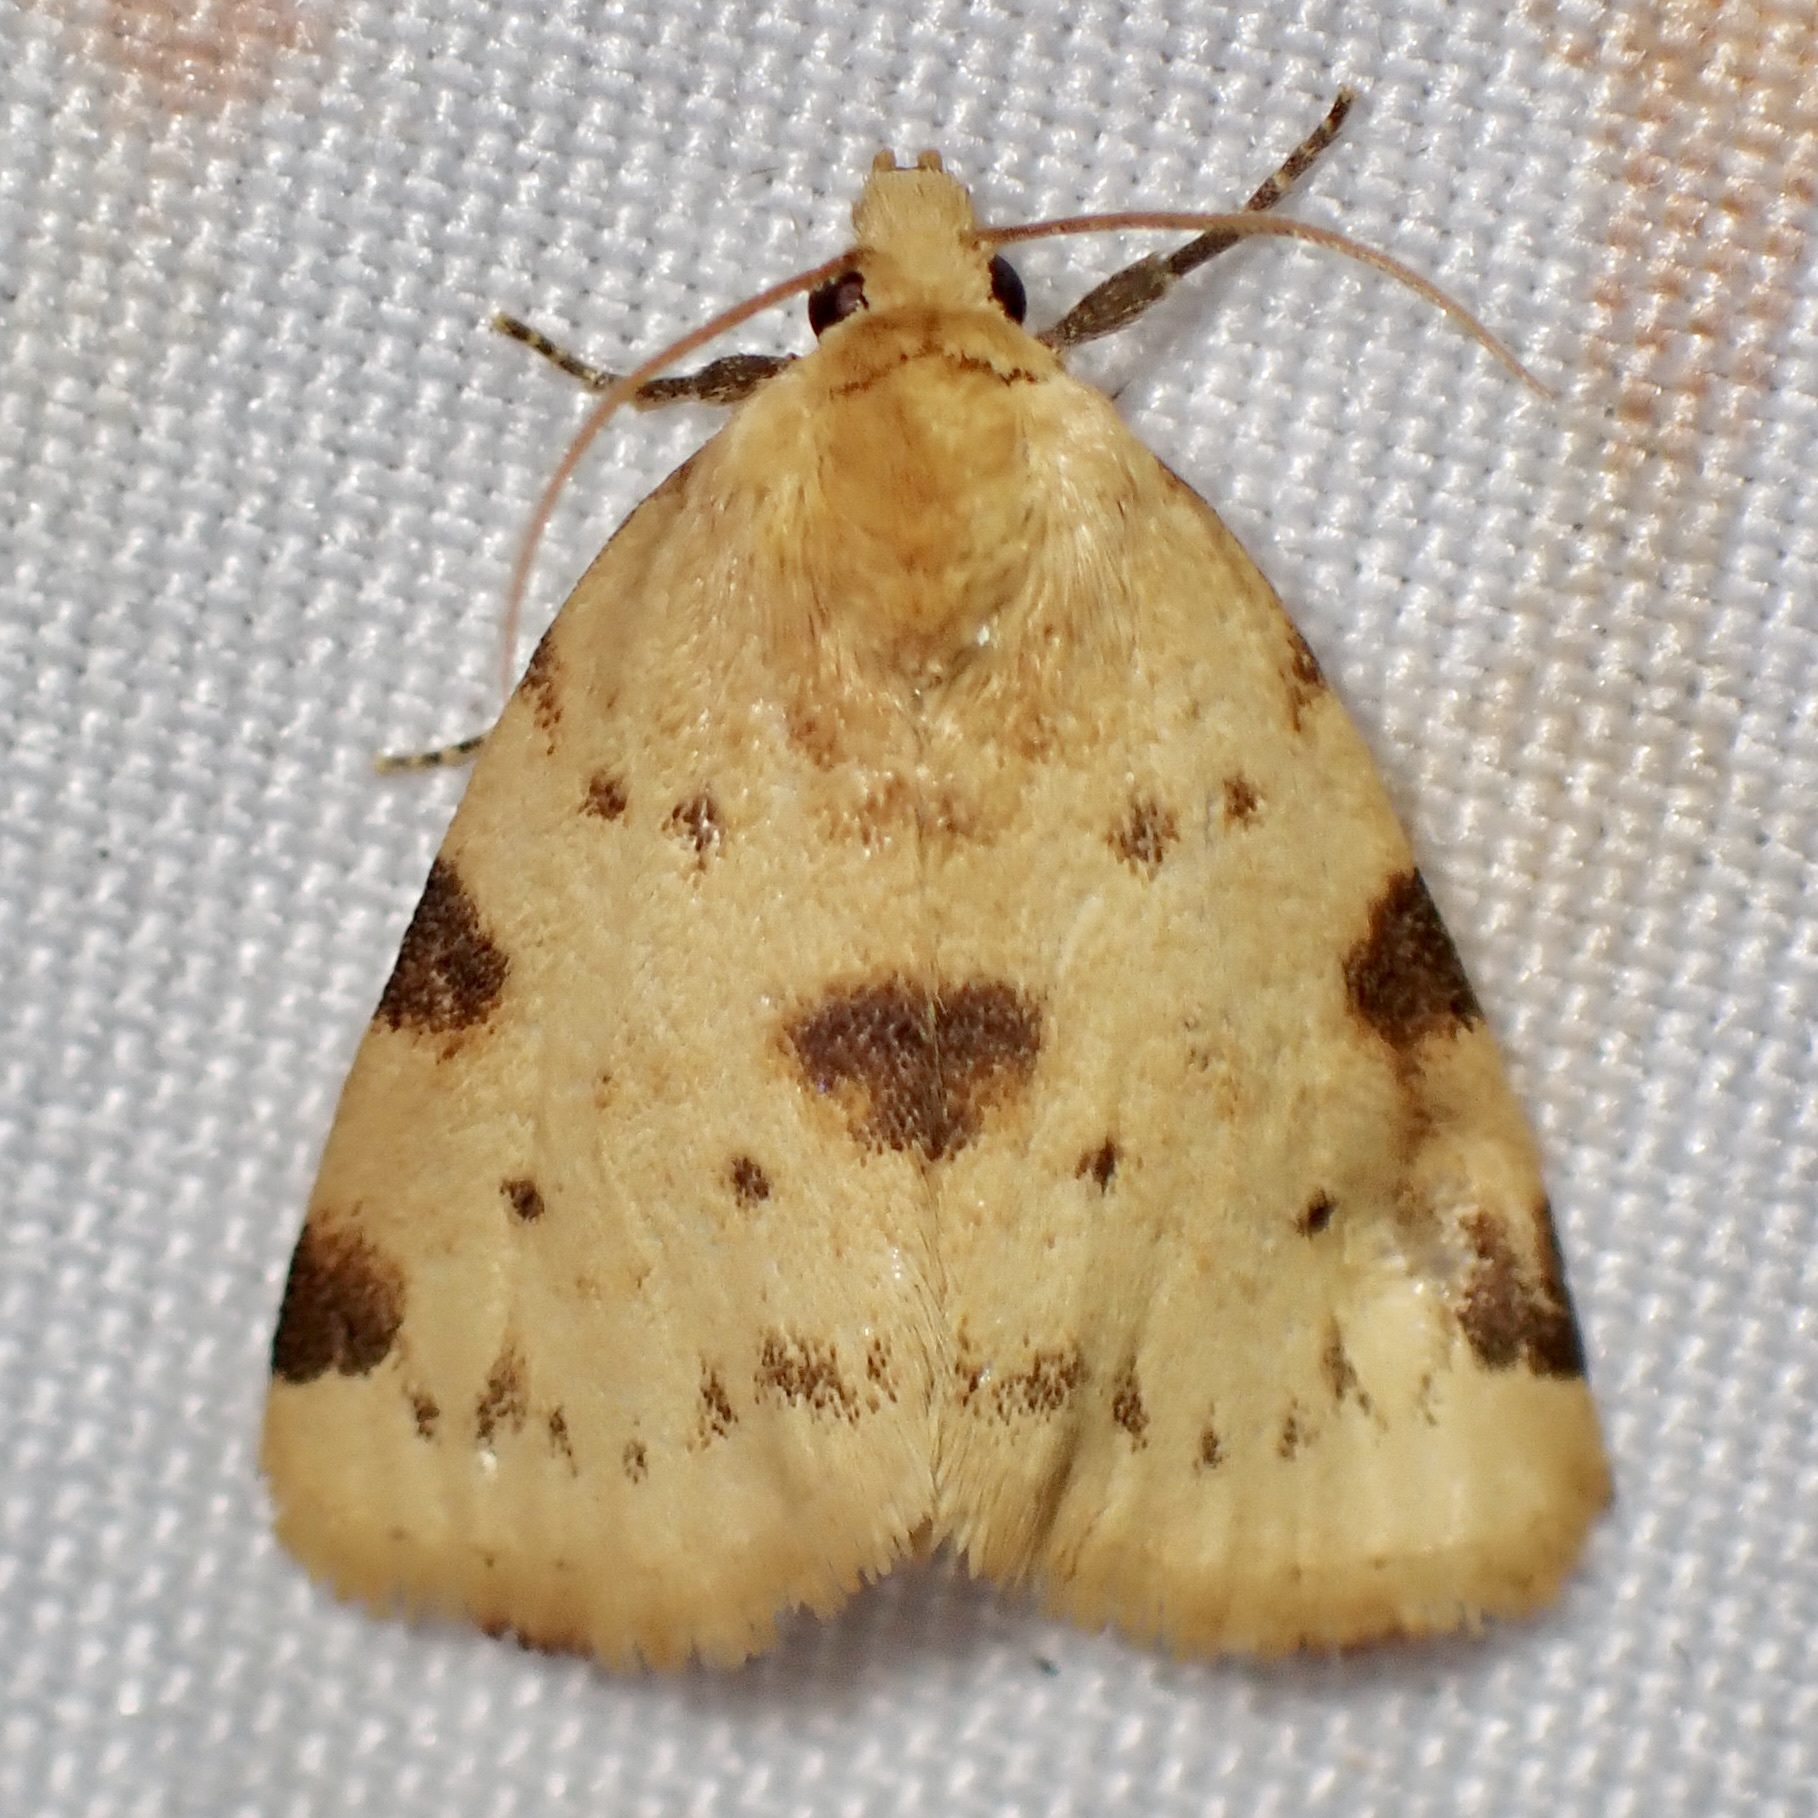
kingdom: Animalia
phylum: Arthropoda
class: Insecta
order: Lepidoptera
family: Noctuidae
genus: Azenia
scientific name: Azenia edentata
